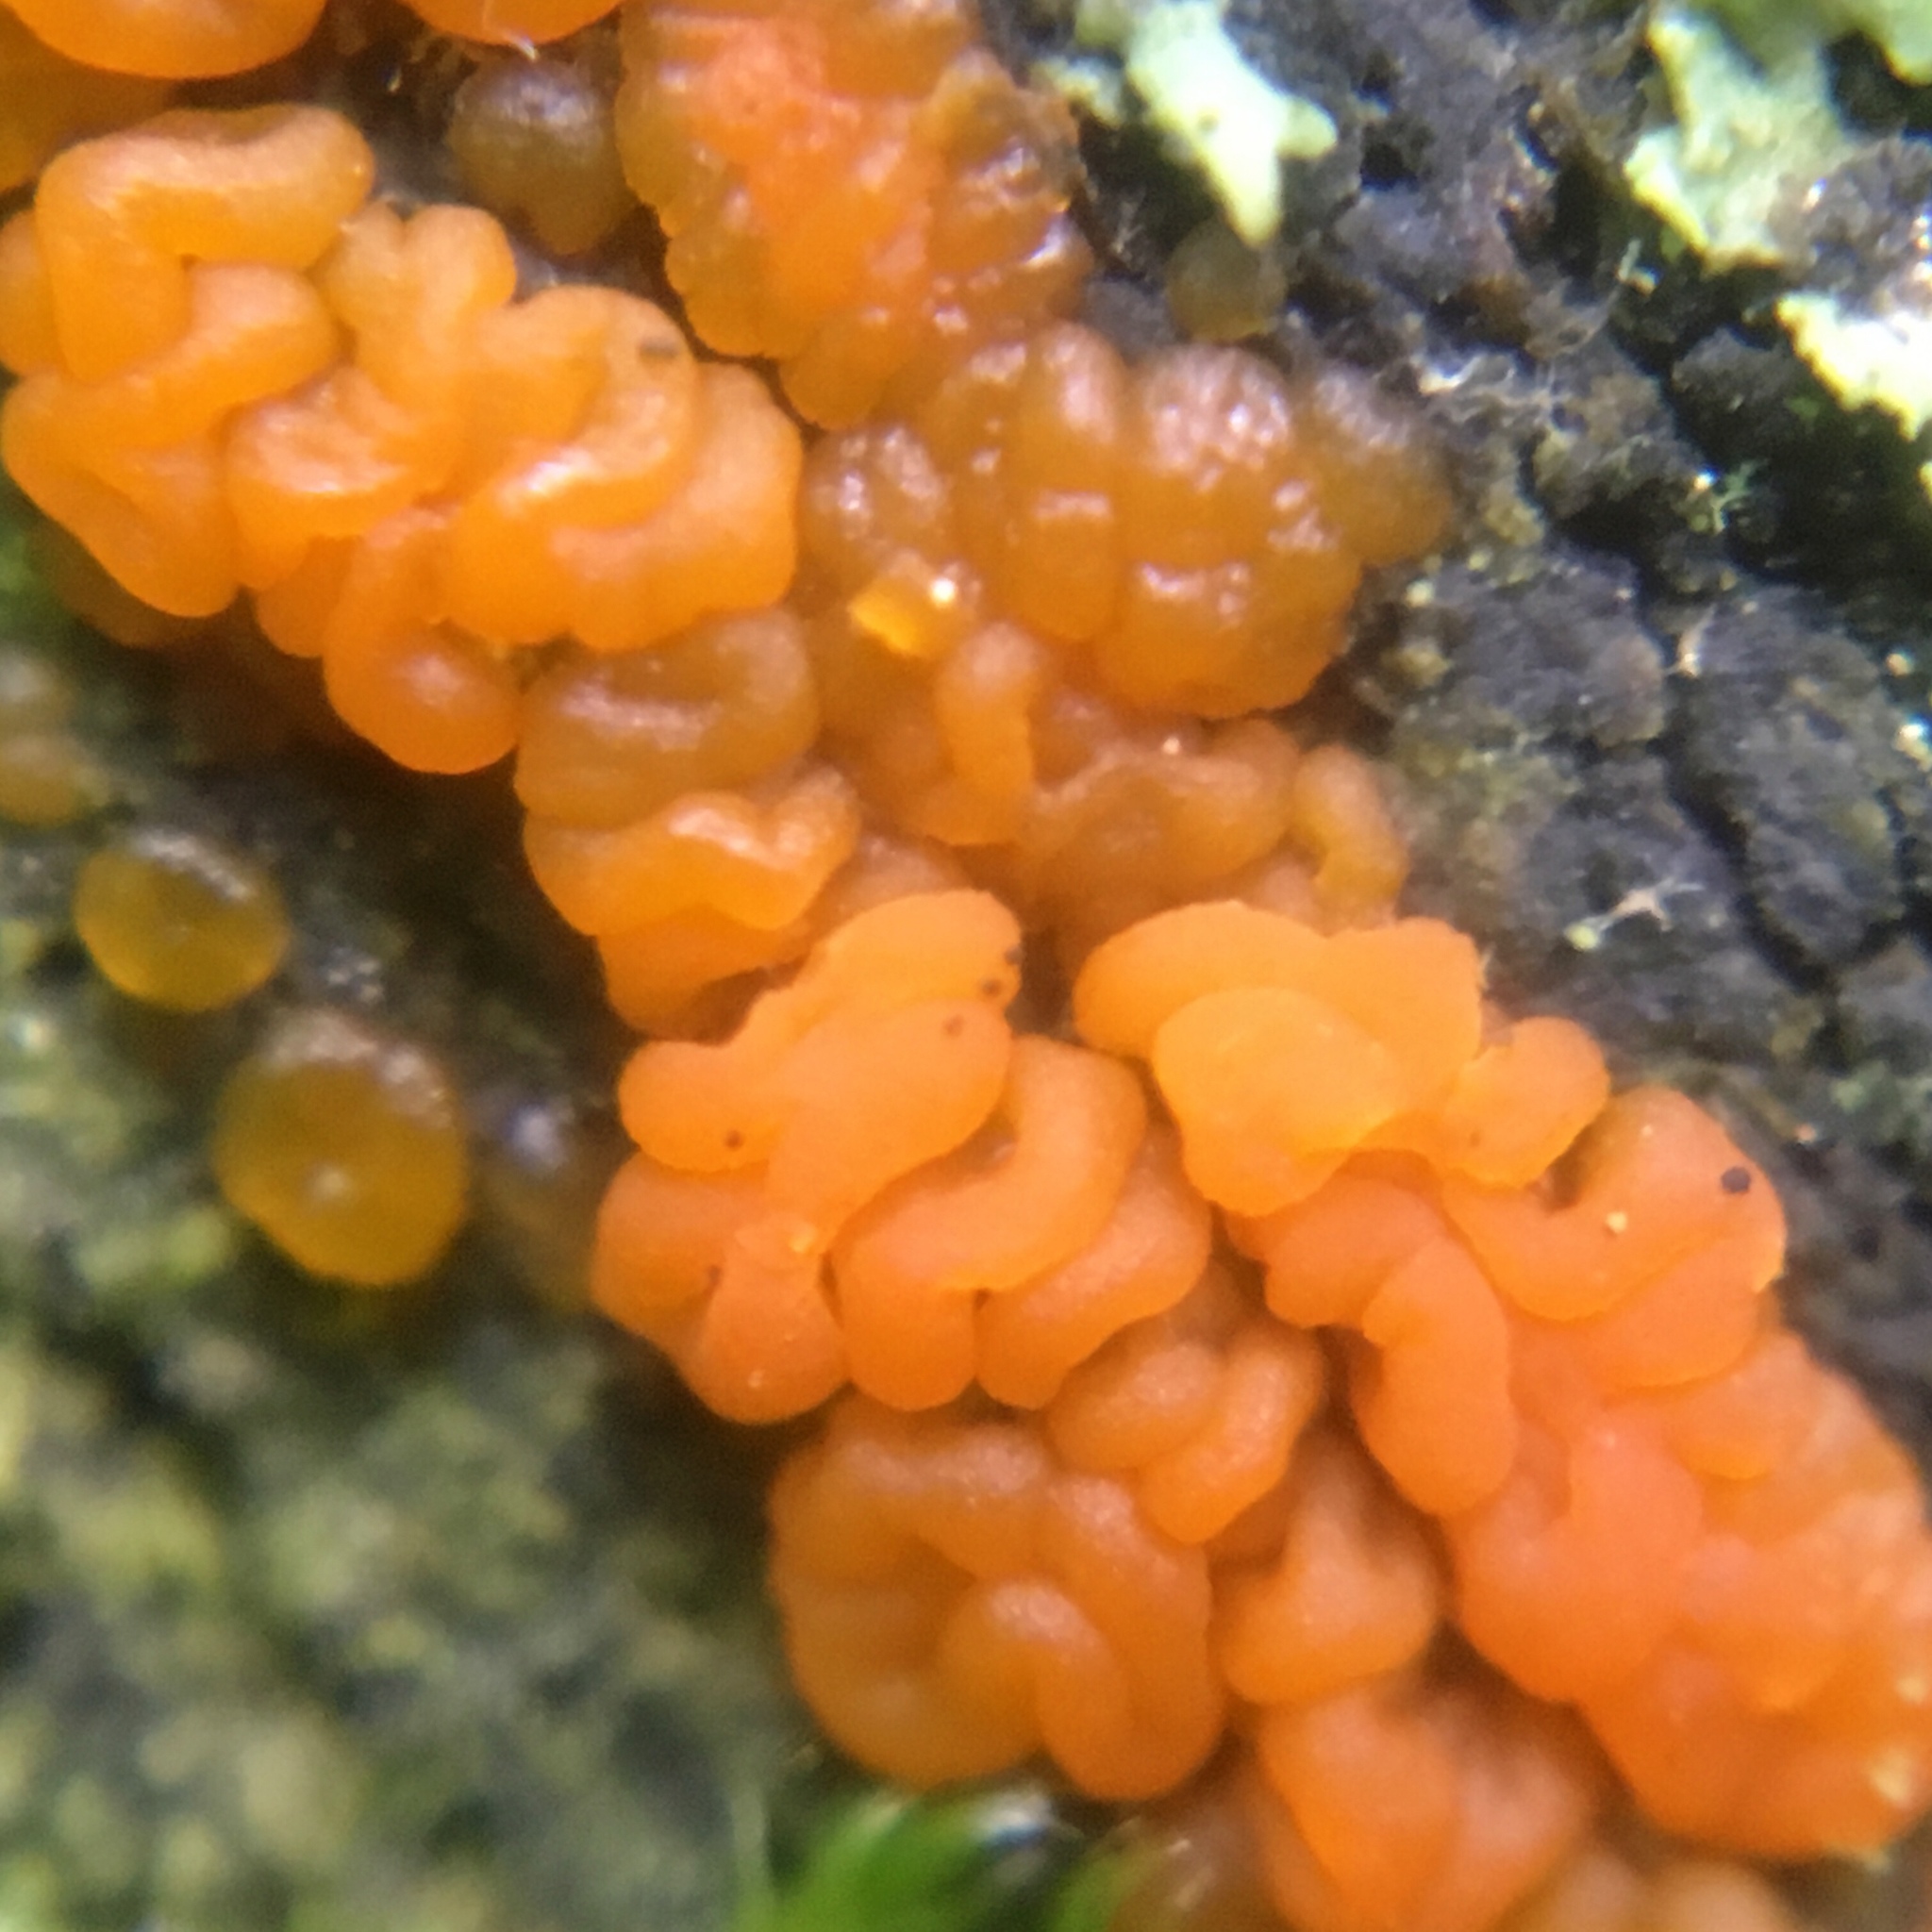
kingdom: Fungi
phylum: Basidiomycota
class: Dacrymycetes
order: Dacrymycetales
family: Dacrymycetaceae
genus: Dacrymyces
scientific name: Dacrymyces chrysospermus
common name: Orange jelly spot
